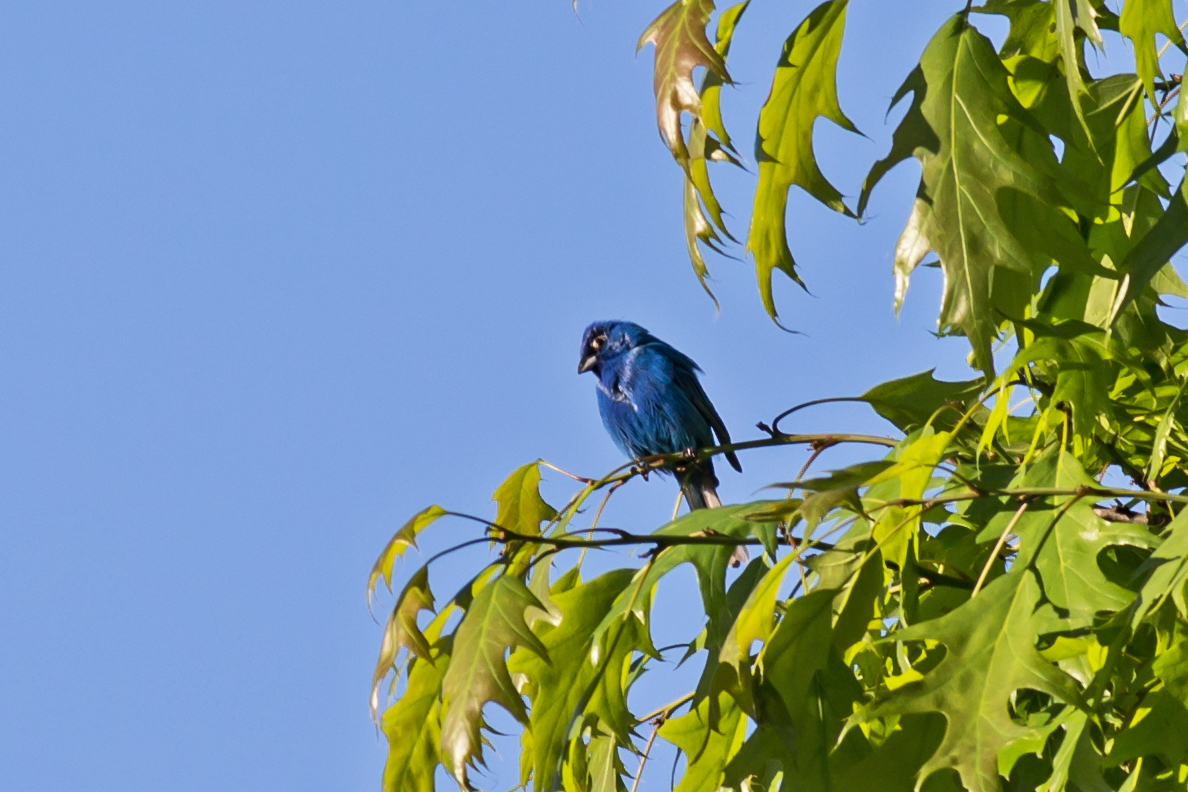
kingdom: Animalia
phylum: Chordata
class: Aves
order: Passeriformes
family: Cardinalidae
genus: Passerina
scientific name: Passerina cyanea
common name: Indigo bunting
